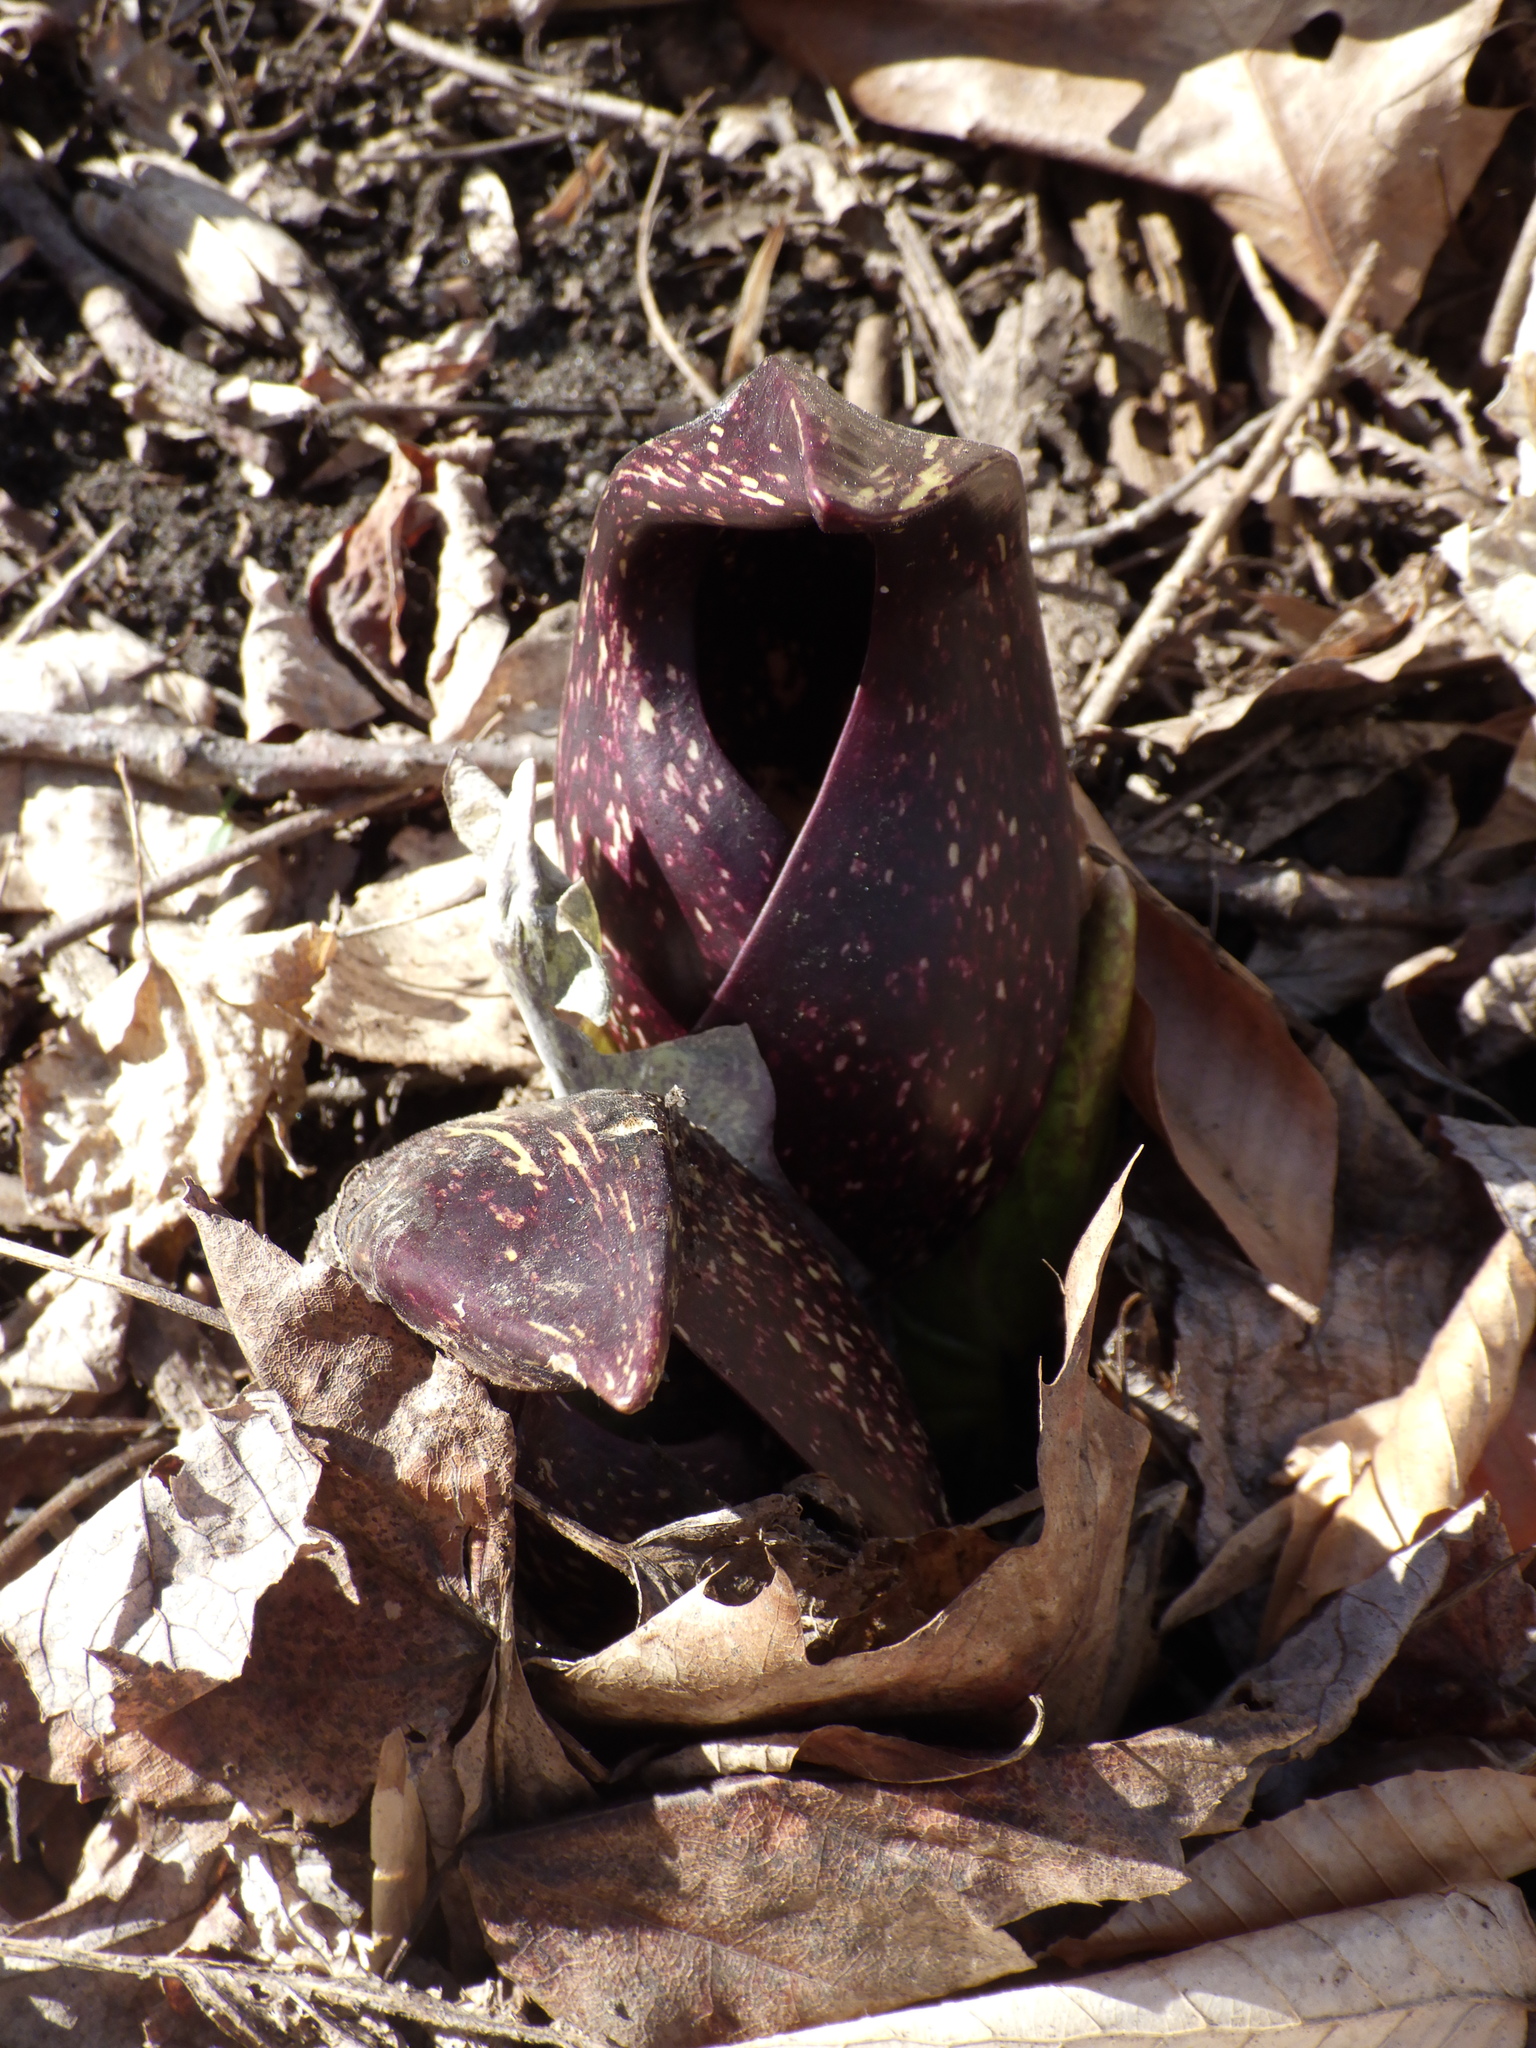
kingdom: Plantae
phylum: Tracheophyta
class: Liliopsida
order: Alismatales
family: Araceae
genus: Symplocarpus
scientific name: Symplocarpus foetidus
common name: Eastern skunk cabbage
